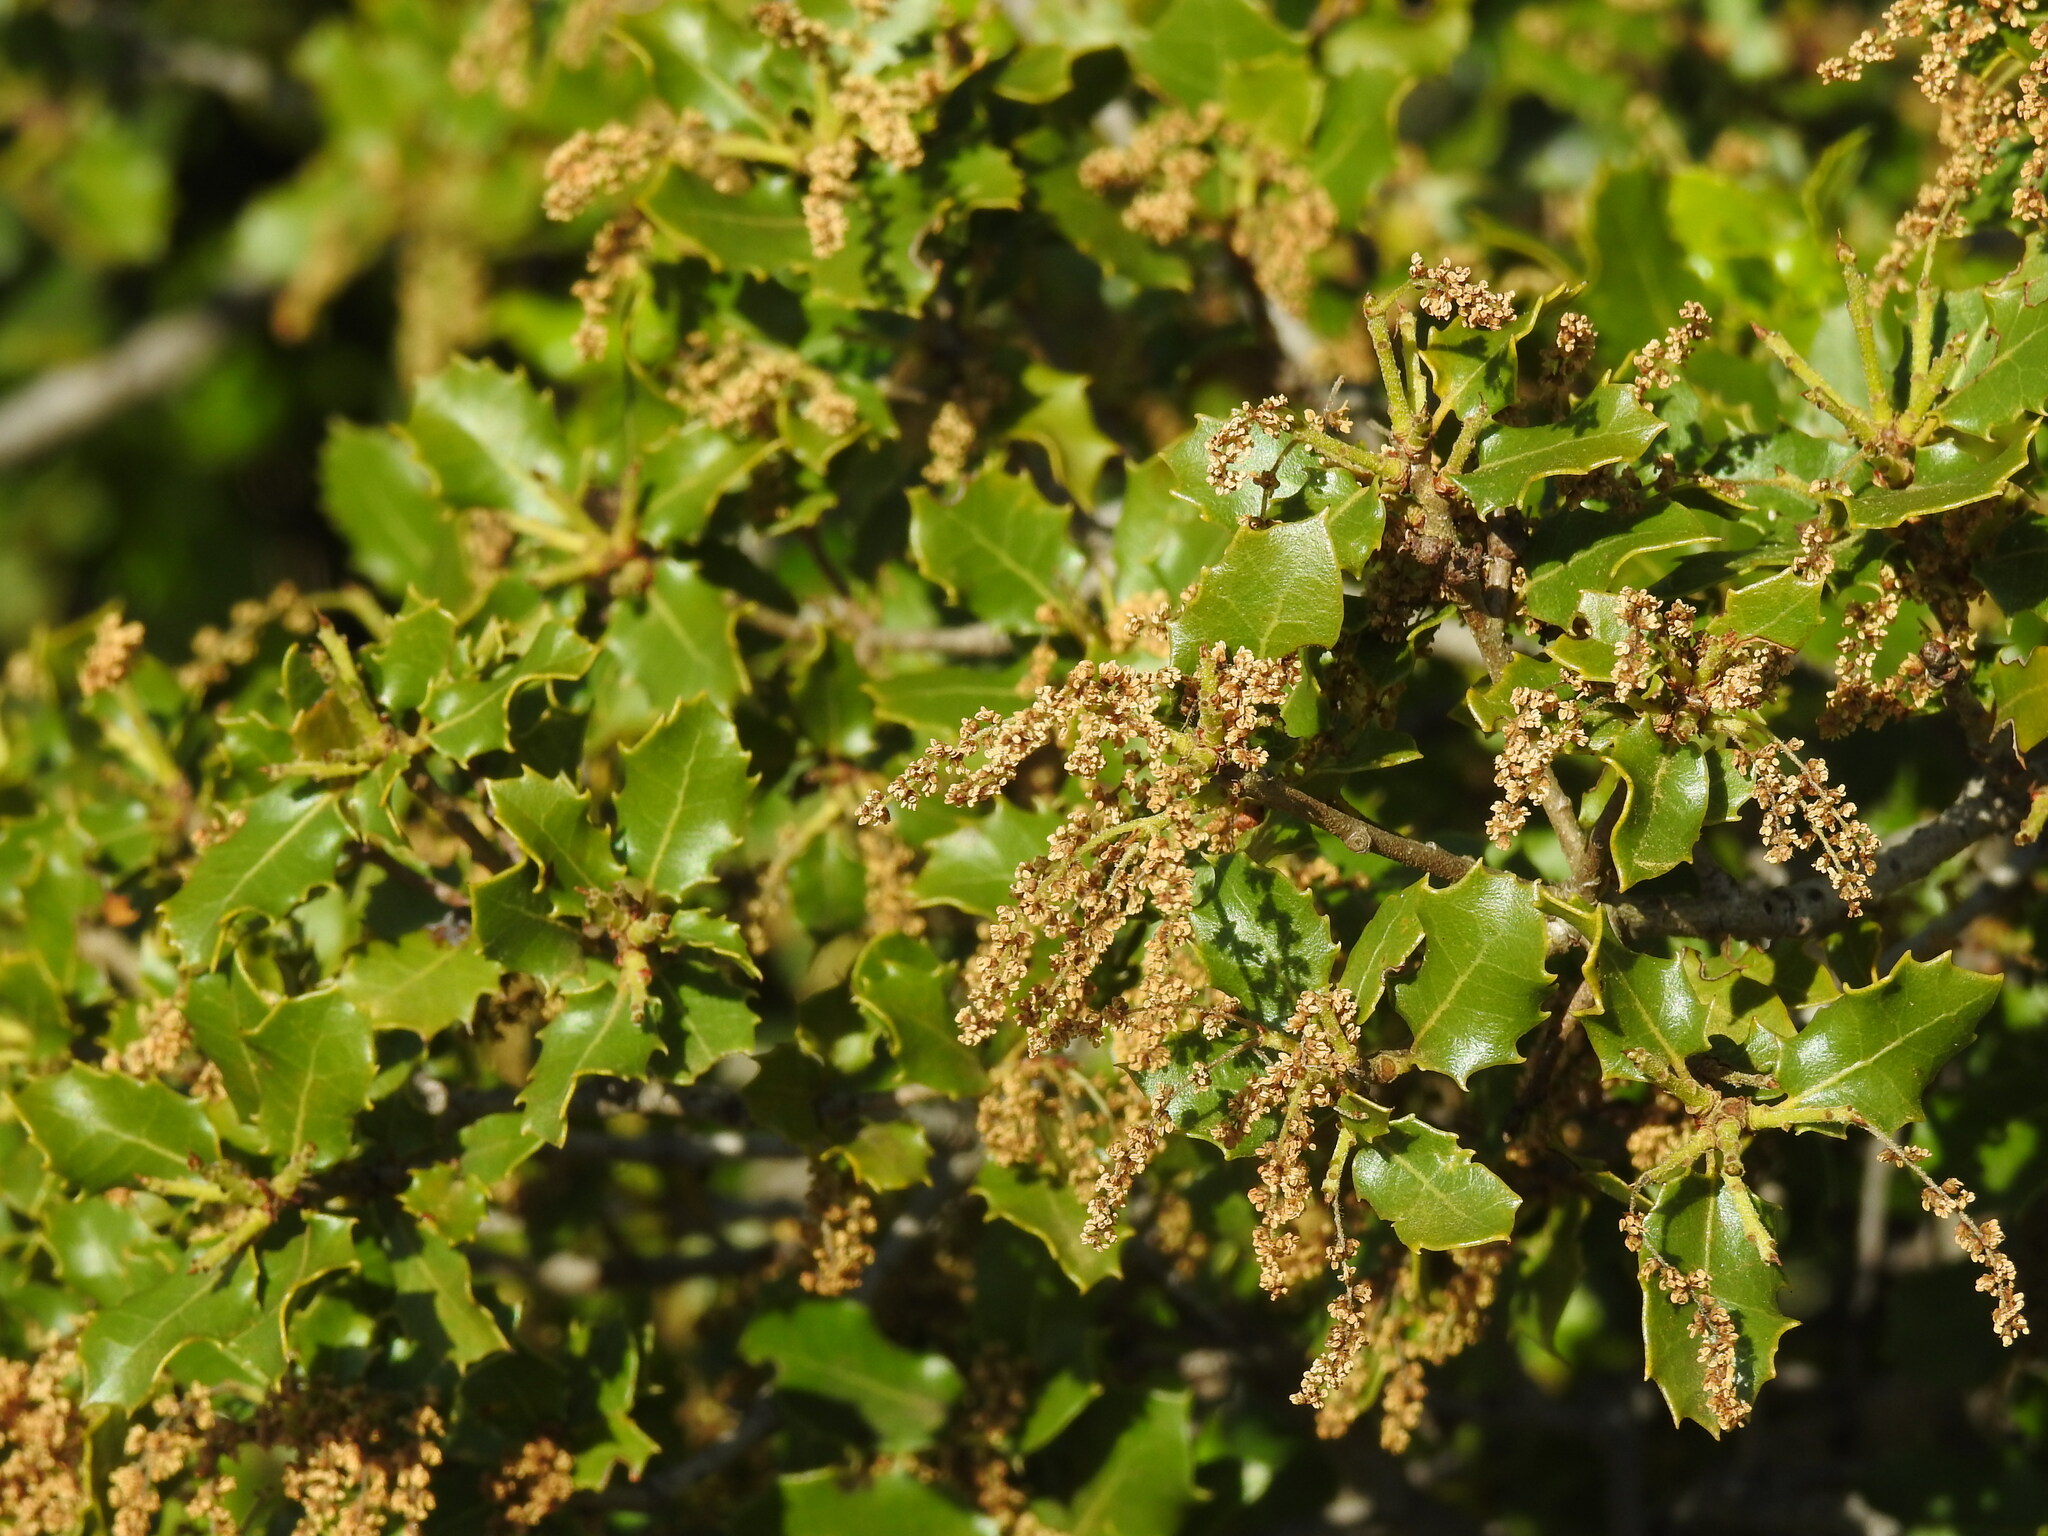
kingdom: Plantae
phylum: Tracheophyta
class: Magnoliopsida
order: Fagales
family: Fagaceae
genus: Quercus
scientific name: Quercus coccifera
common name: Kermes oak
